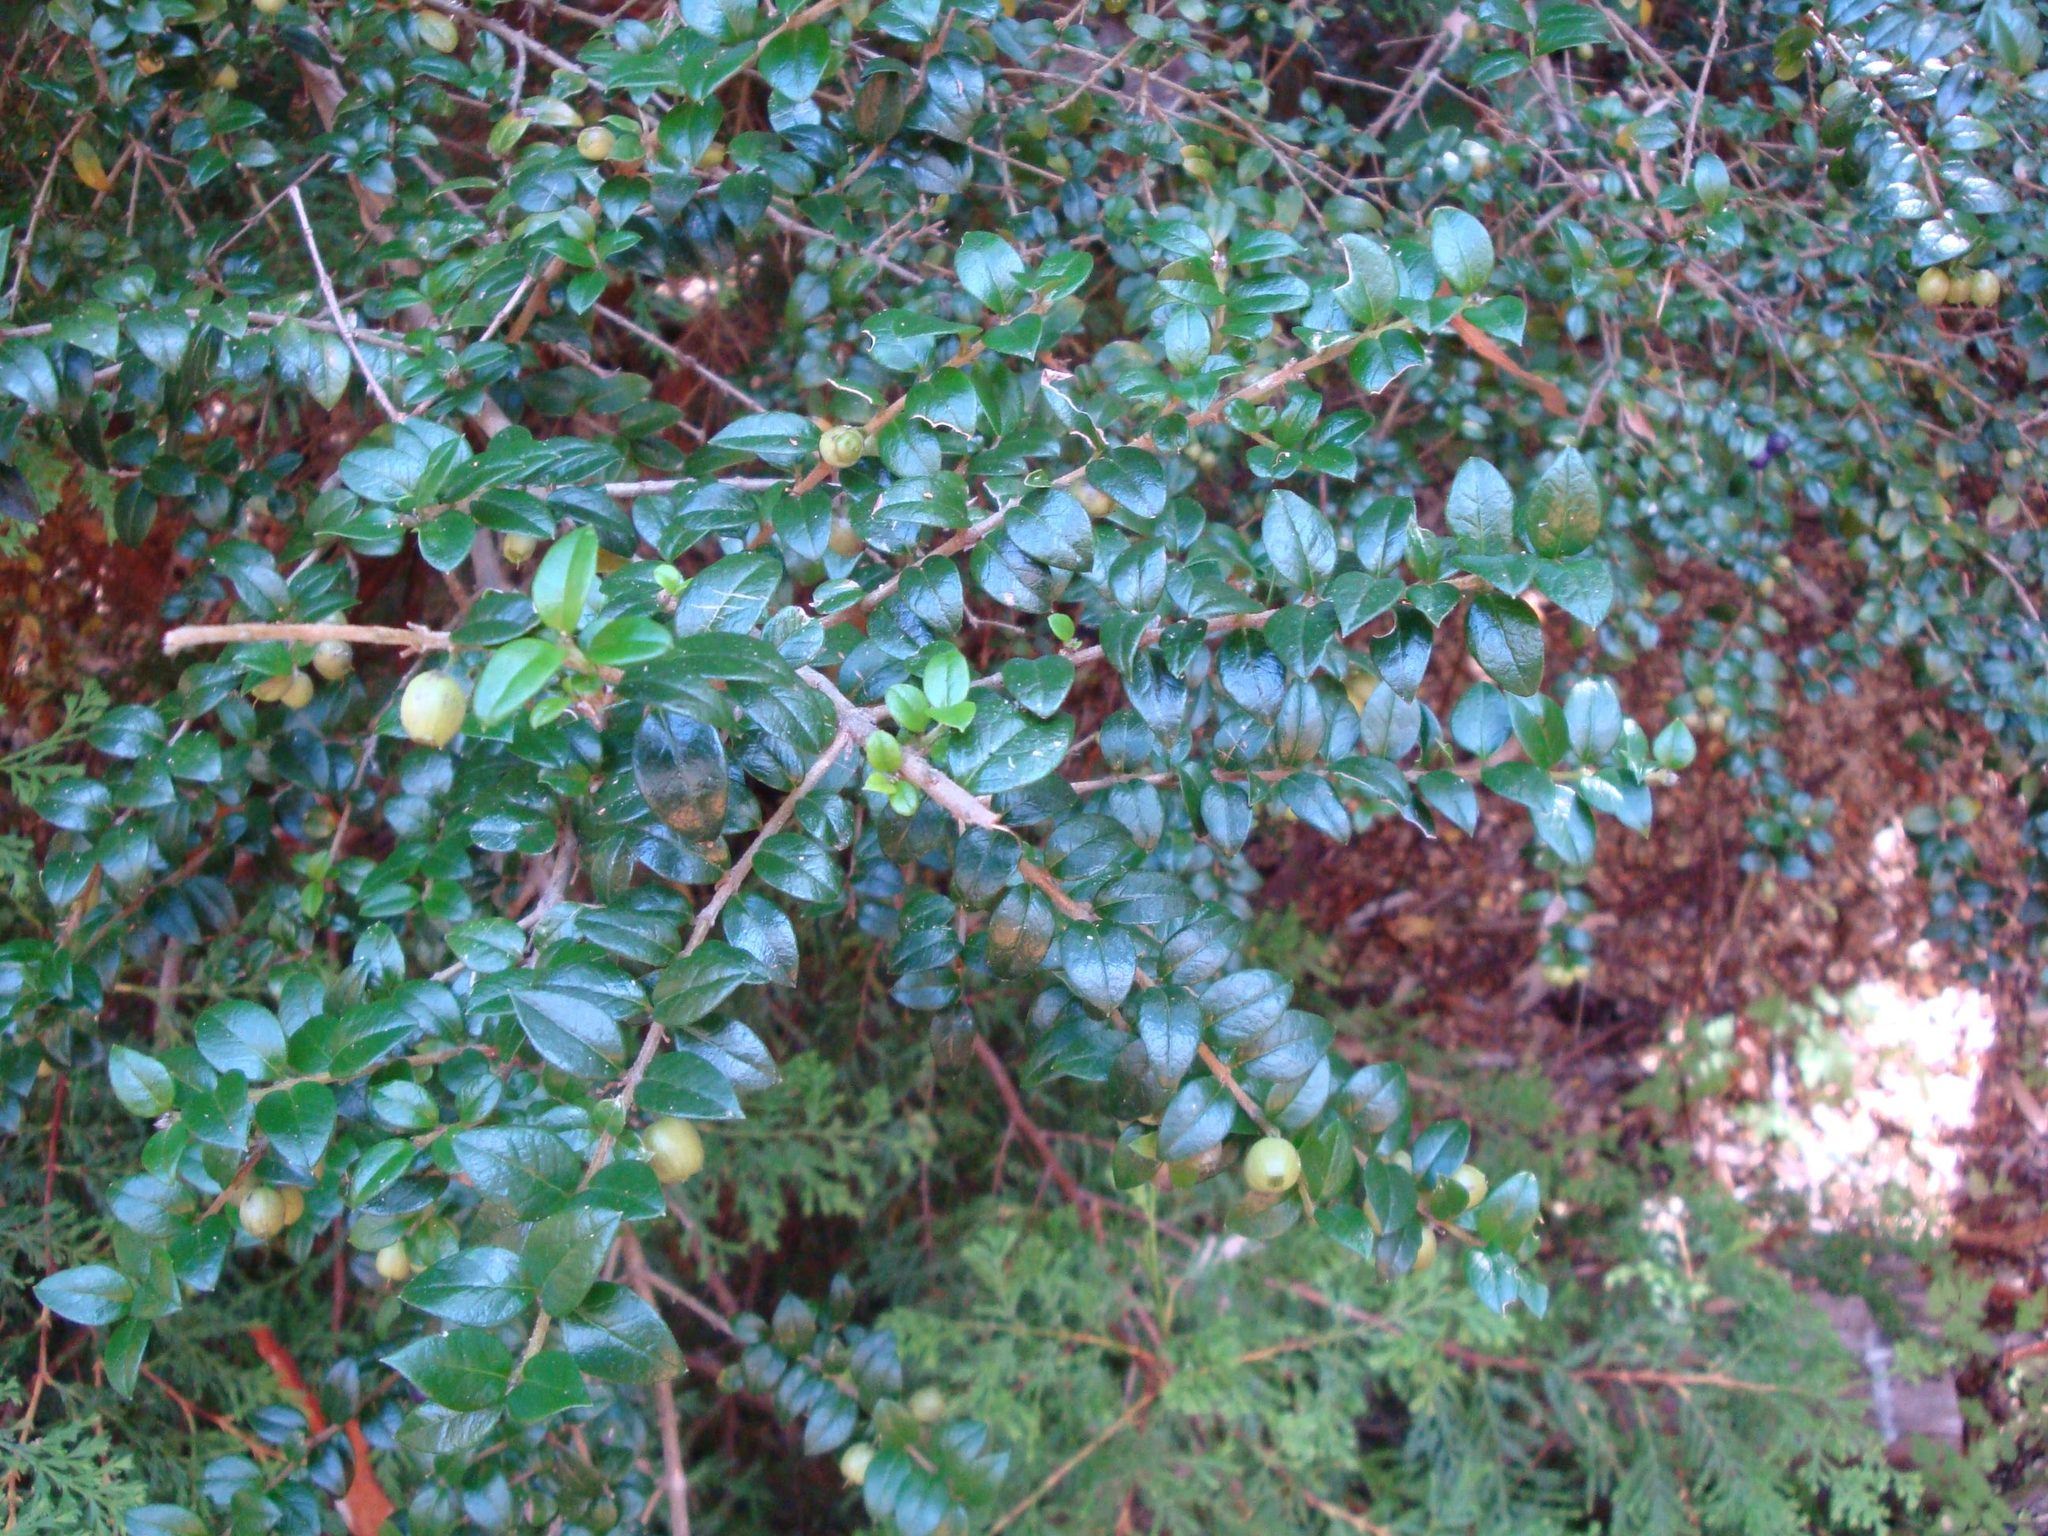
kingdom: Plantae
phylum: Tracheophyta
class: Magnoliopsida
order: Myrtales
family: Myrtaceae
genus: Luma
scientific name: Luma apiculata
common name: Chilean myrtle
